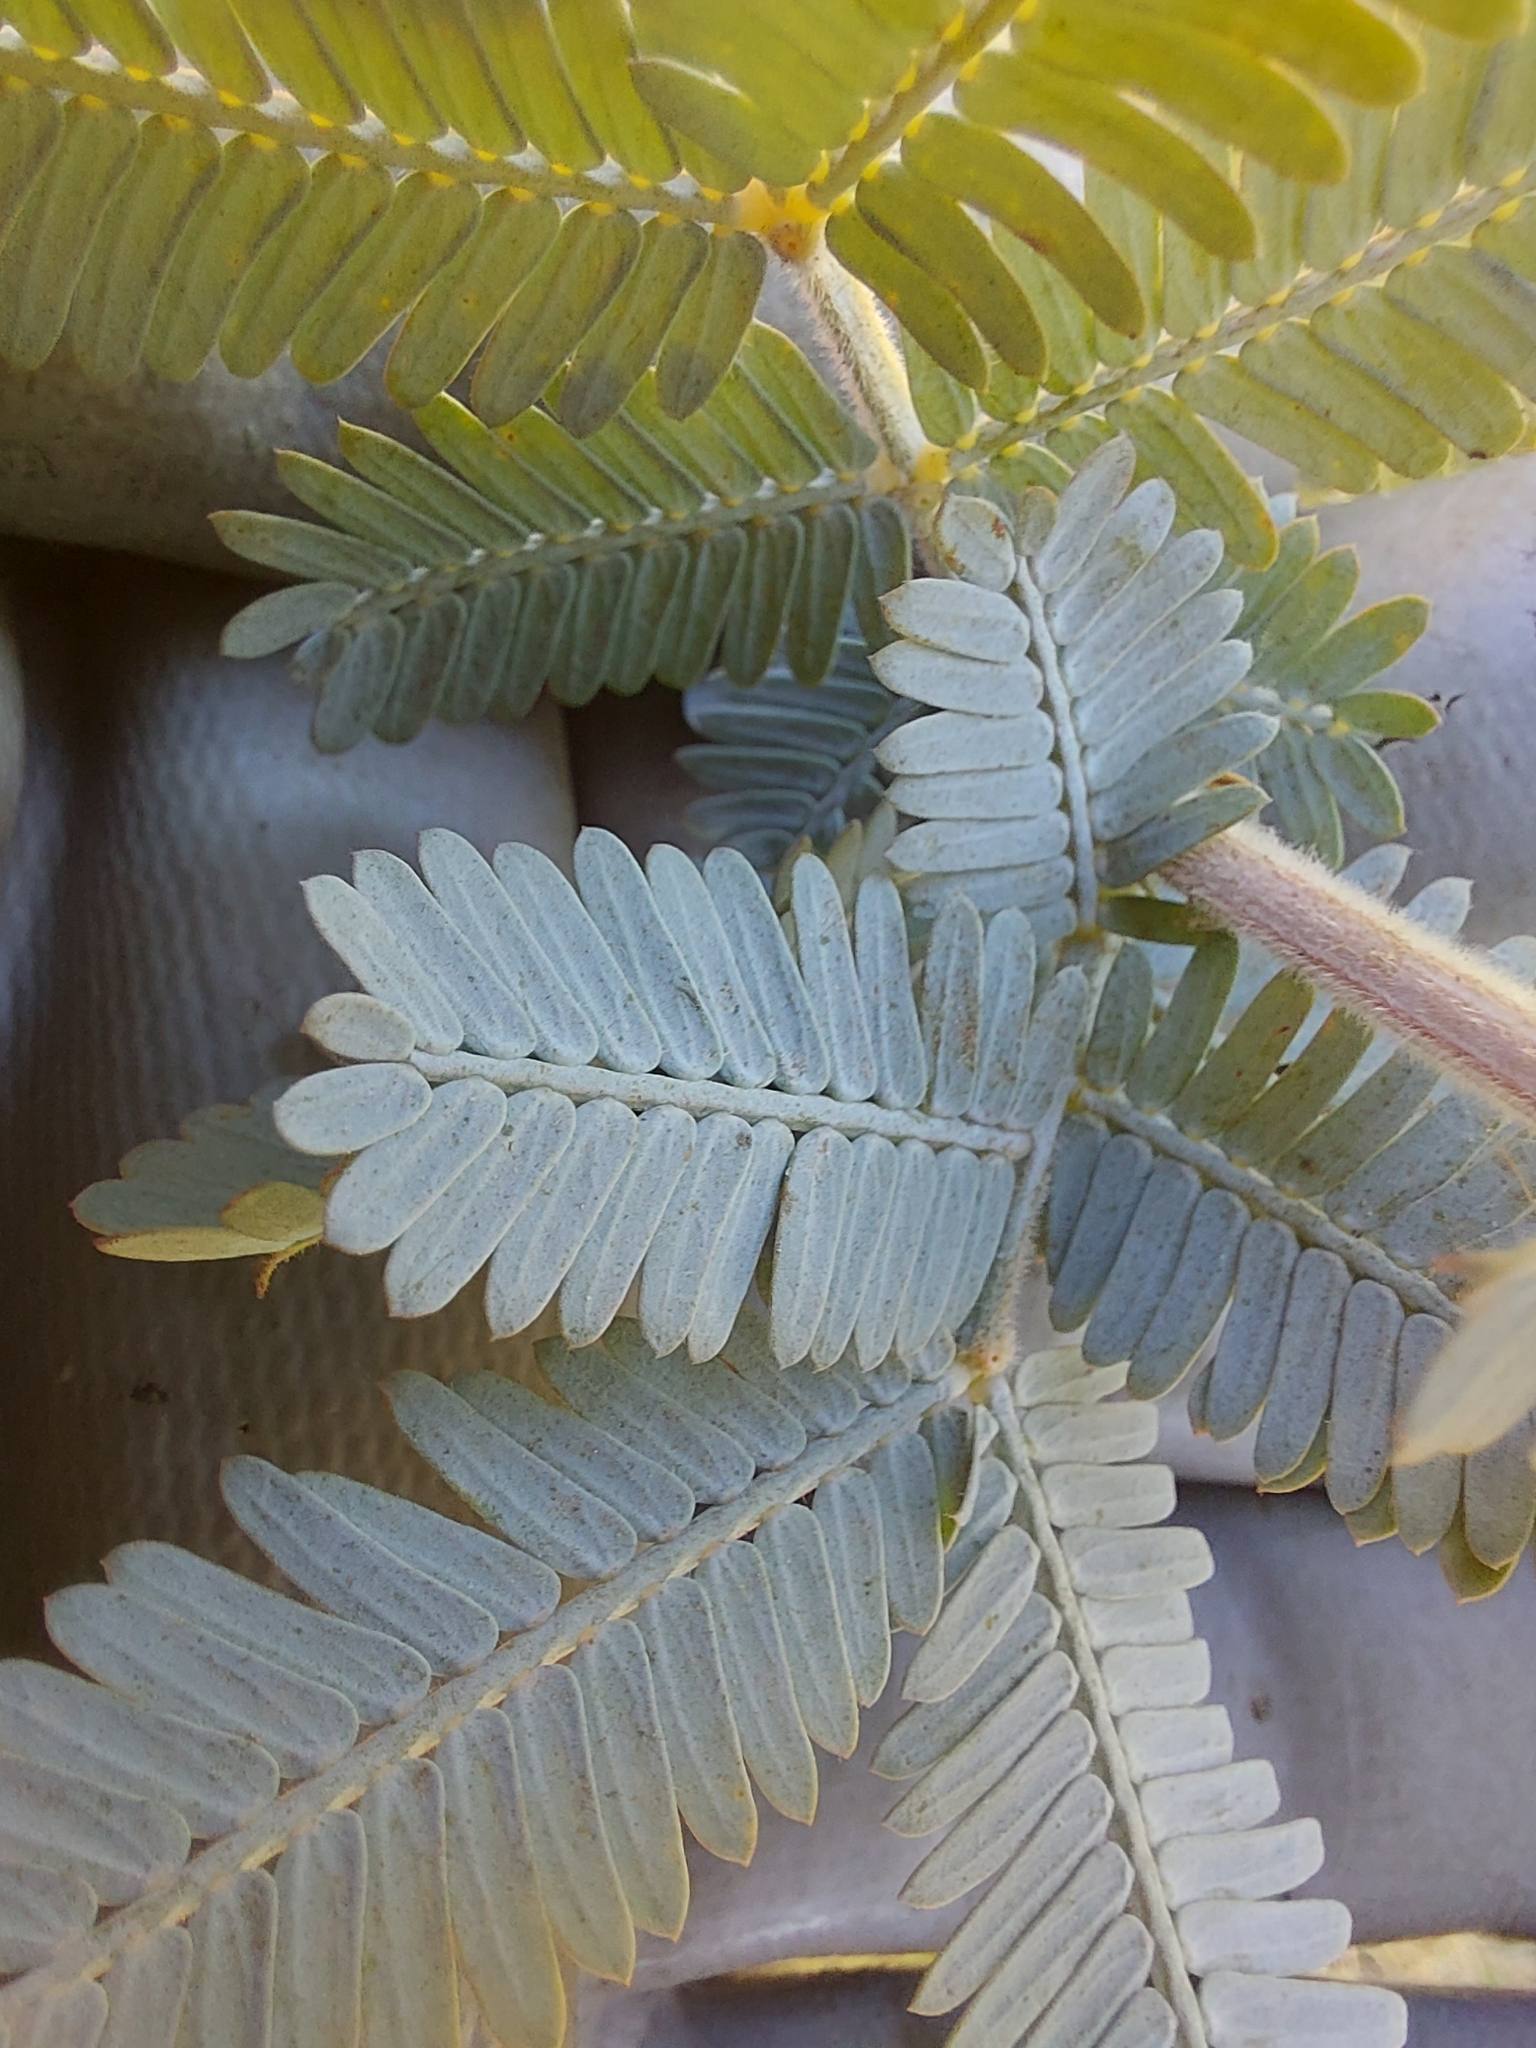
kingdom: Plantae
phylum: Tracheophyta
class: Magnoliopsida
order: Fabales
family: Fabaceae
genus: Acacia
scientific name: Acacia baileyana
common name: Cootamundra wattle
